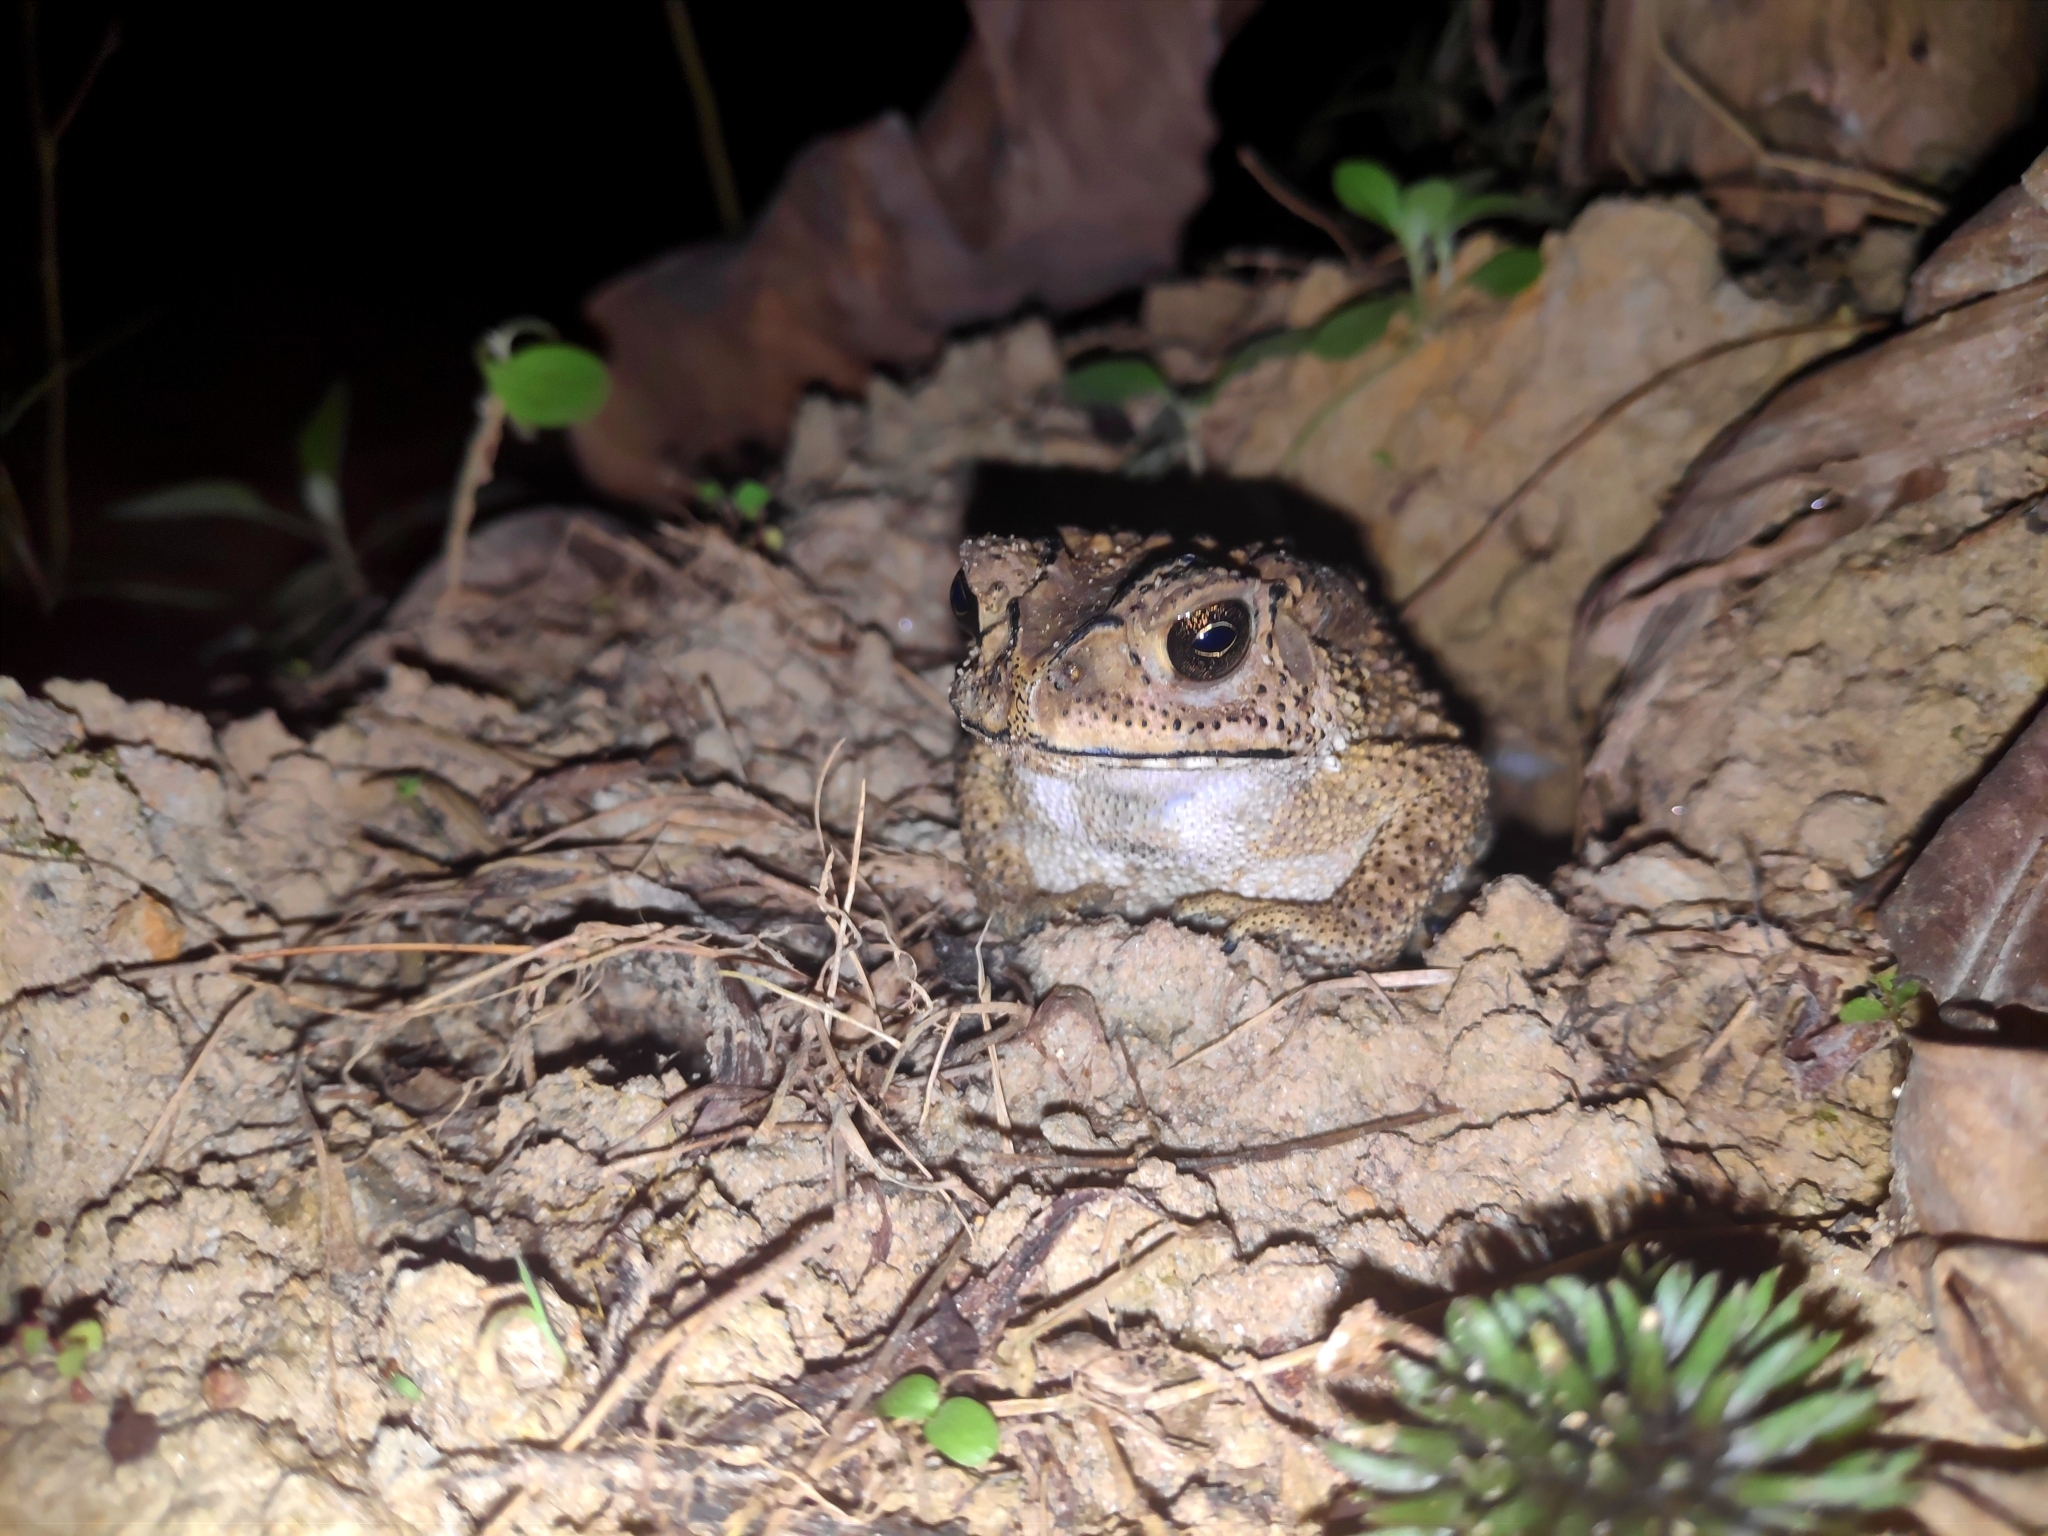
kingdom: Animalia
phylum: Chordata
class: Amphibia
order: Anura
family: Bufonidae
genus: Duttaphrynus
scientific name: Duttaphrynus melanostictus
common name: Common sunda toad
